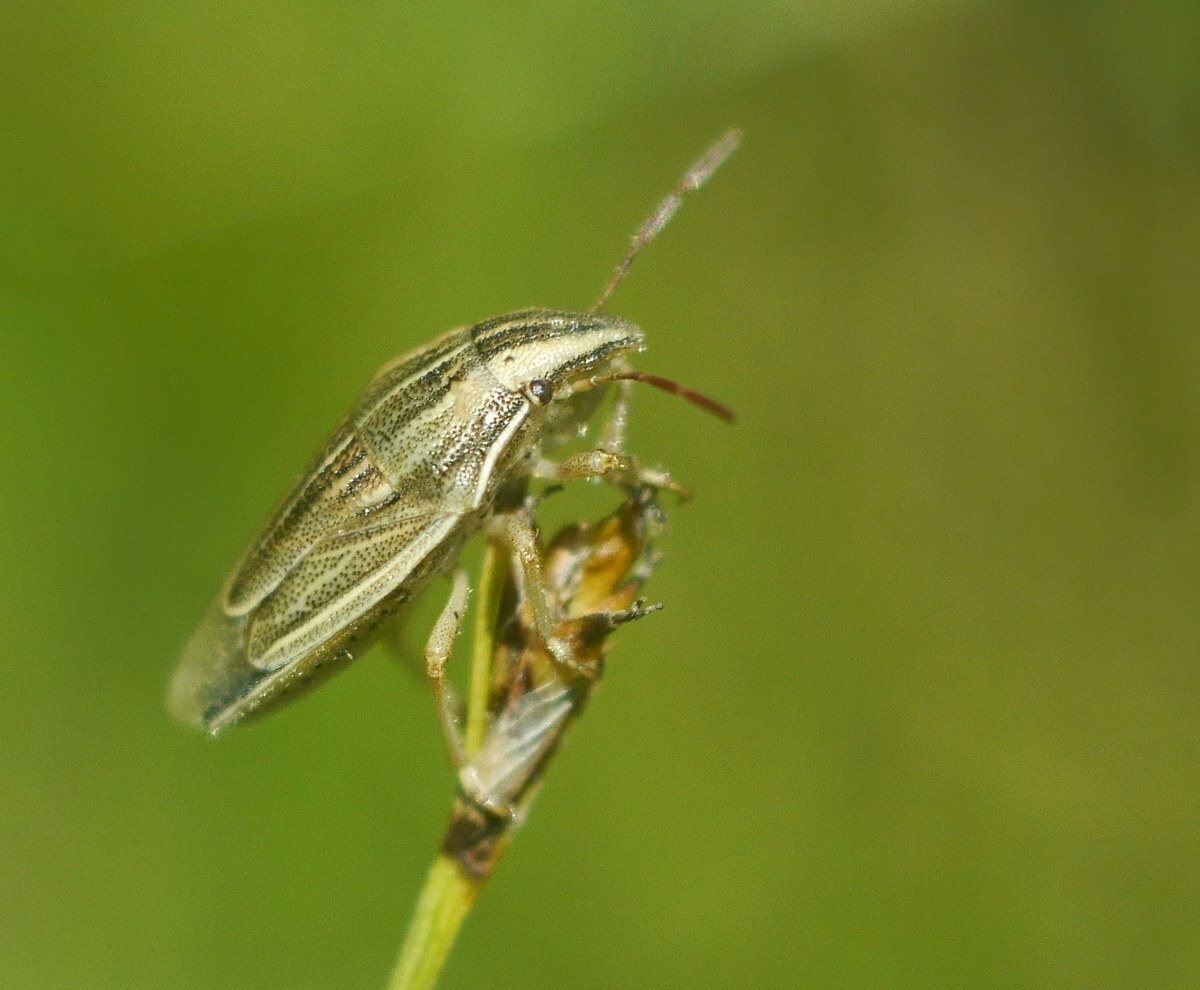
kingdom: Animalia
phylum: Arthropoda
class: Insecta
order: Hemiptera
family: Pentatomidae
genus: Aelia
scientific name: Aelia acuminata
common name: Bishop's mitre
